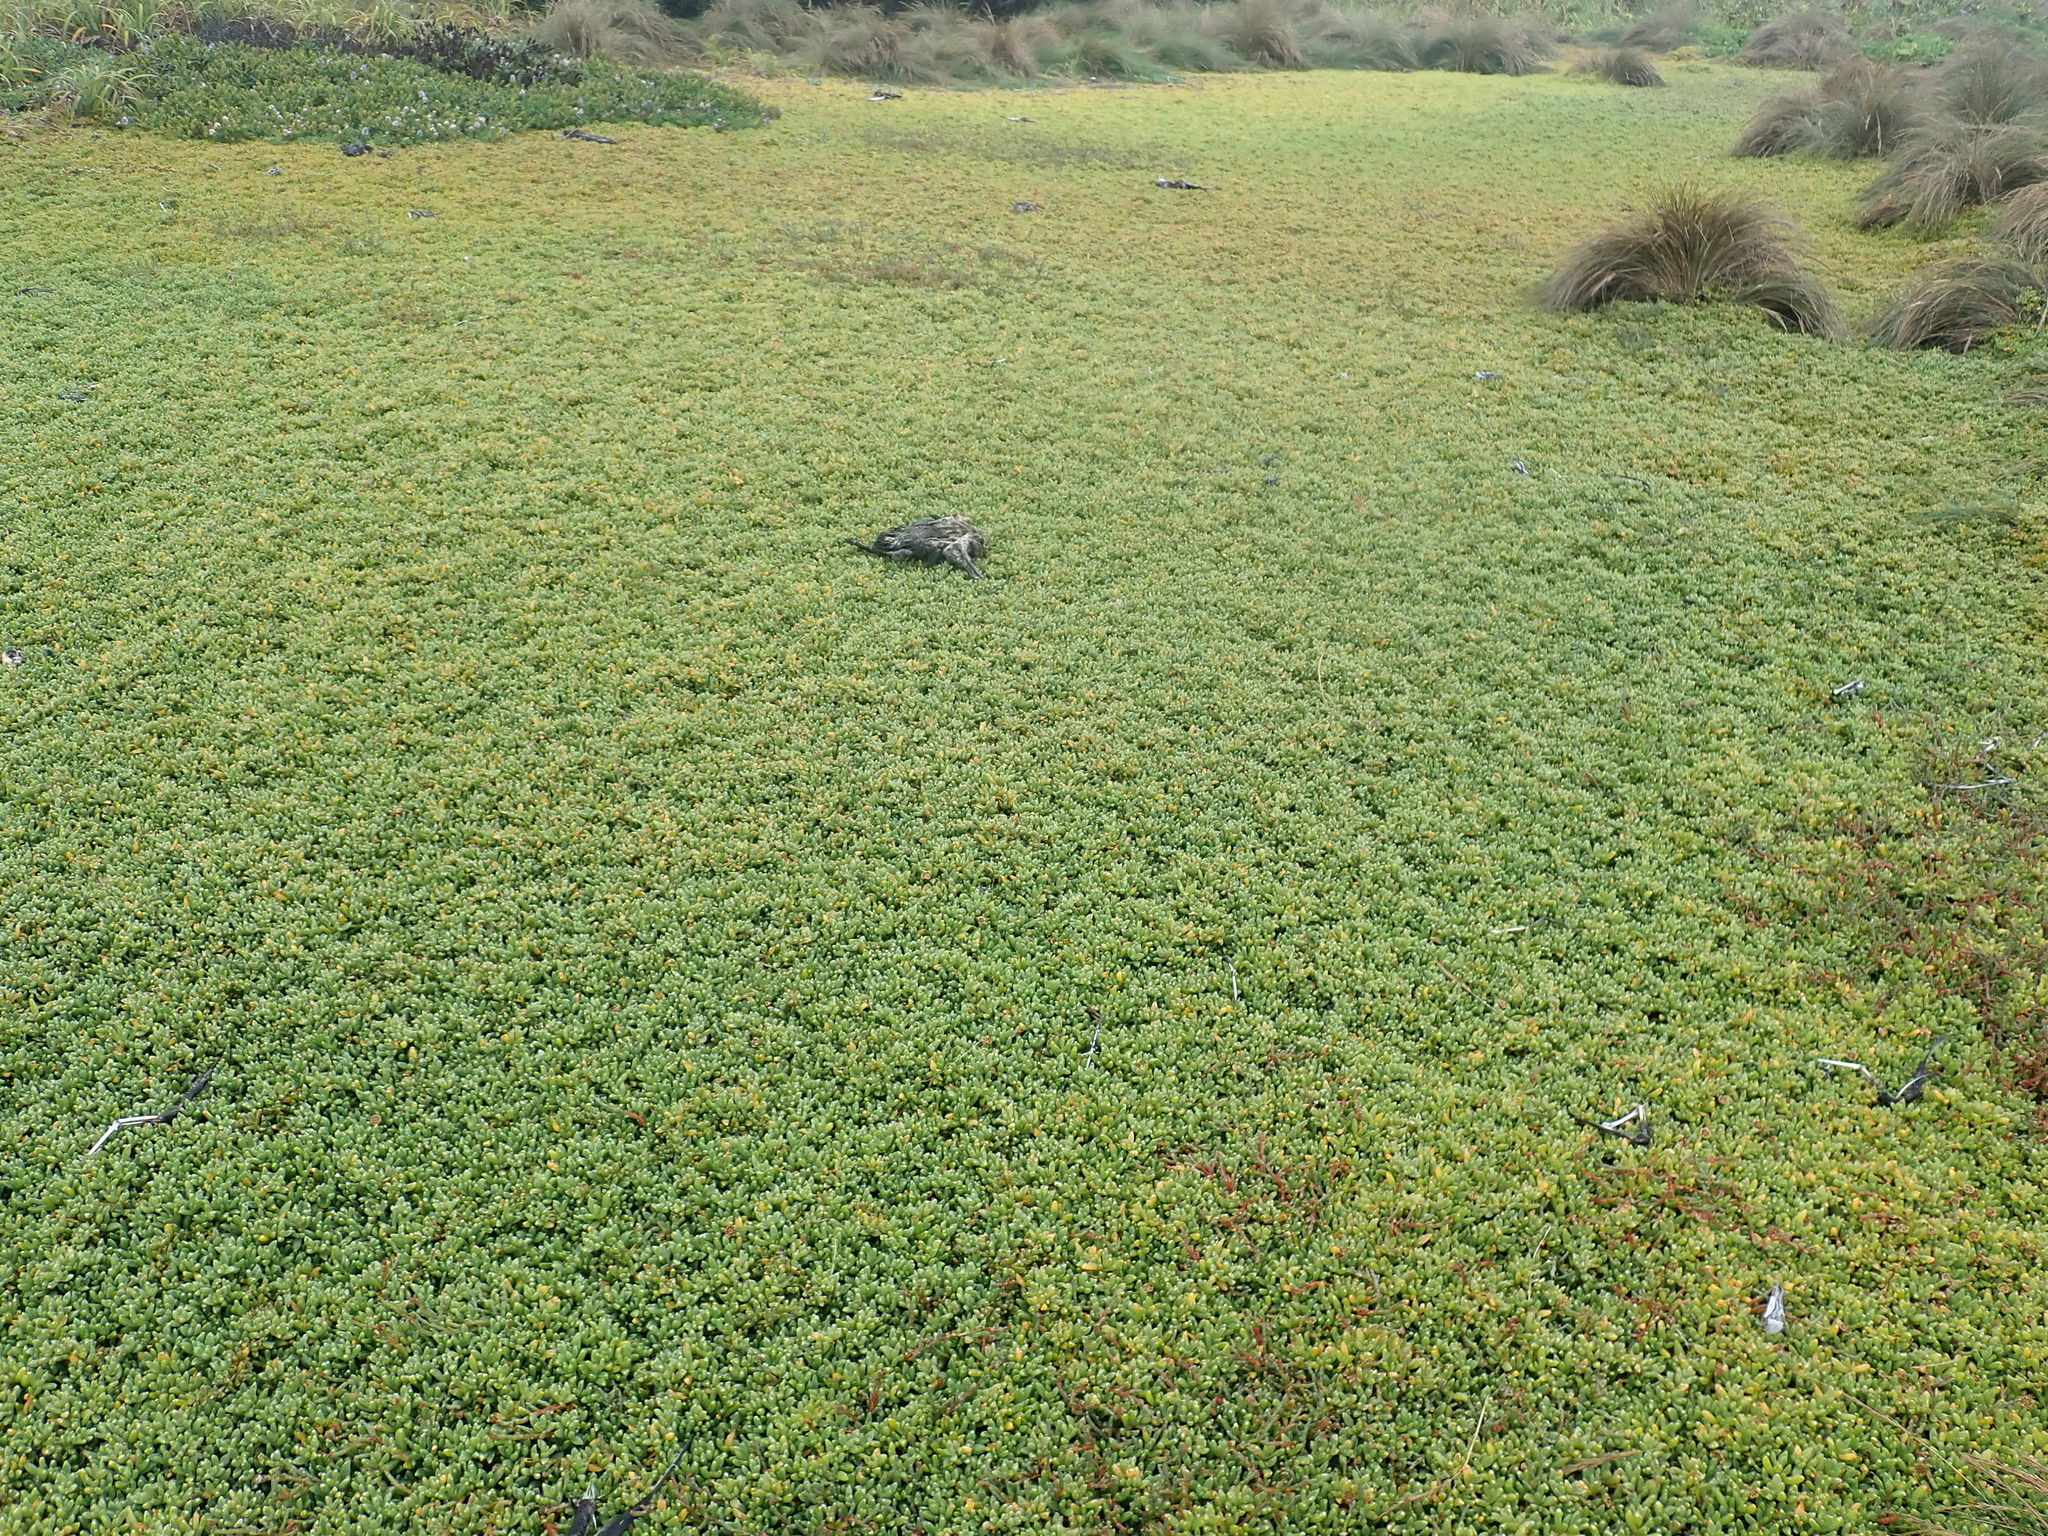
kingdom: Plantae
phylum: Tracheophyta
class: Magnoliopsida
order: Caryophyllales
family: Aizoaceae
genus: Disphyma
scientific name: Disphyma papillatum
